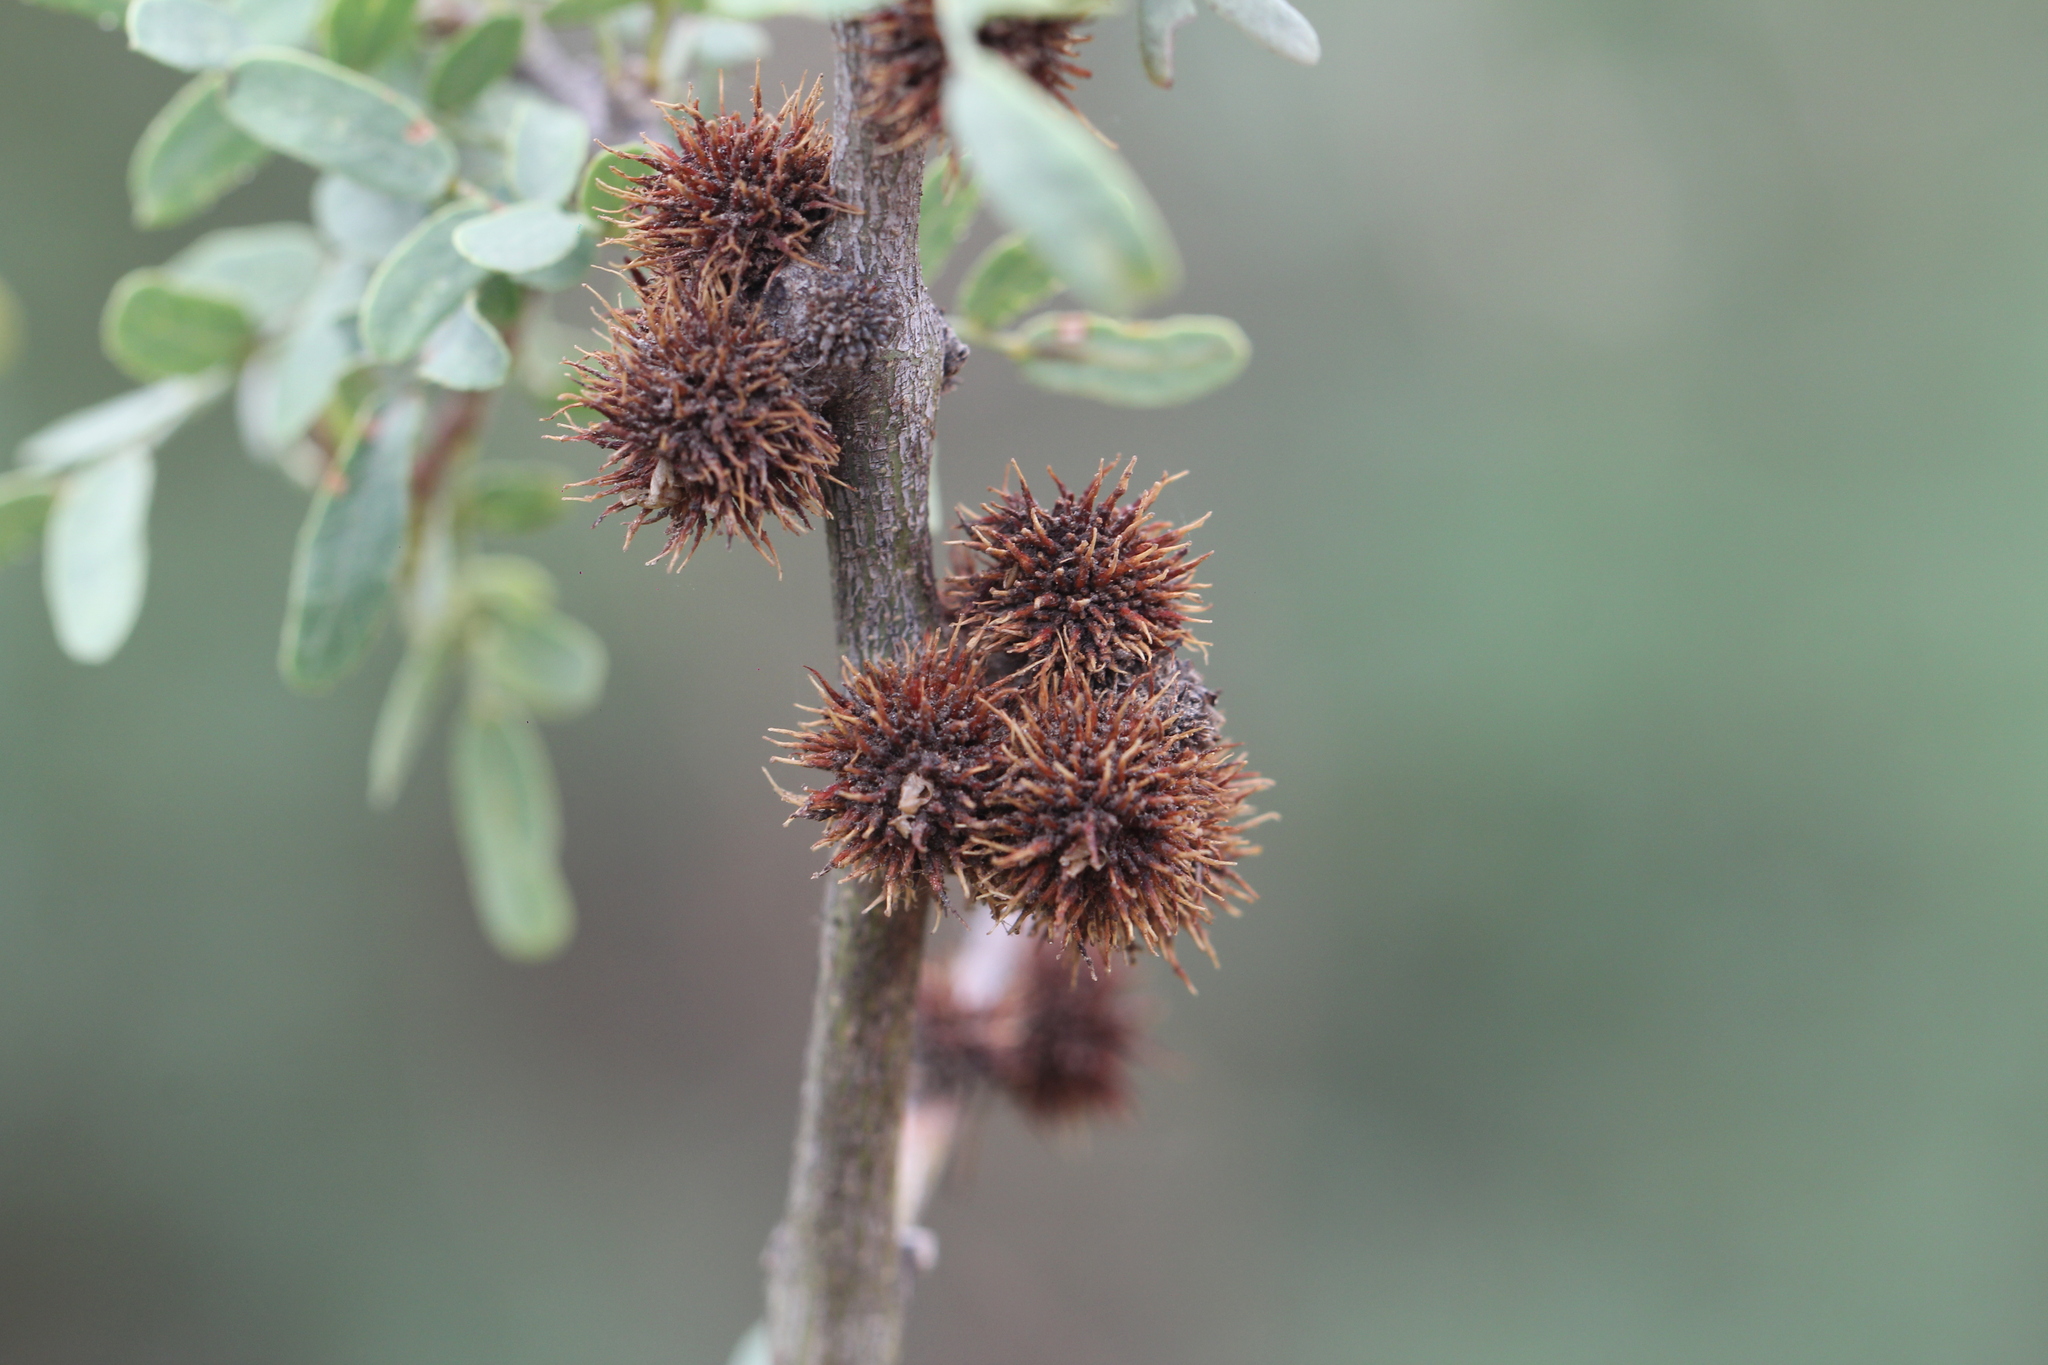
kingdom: Plantae
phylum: Tracheophyta
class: Magnoliopsida
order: Fabales
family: Fabaceae
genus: Geoffroea
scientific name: Geoffroea decorticans
